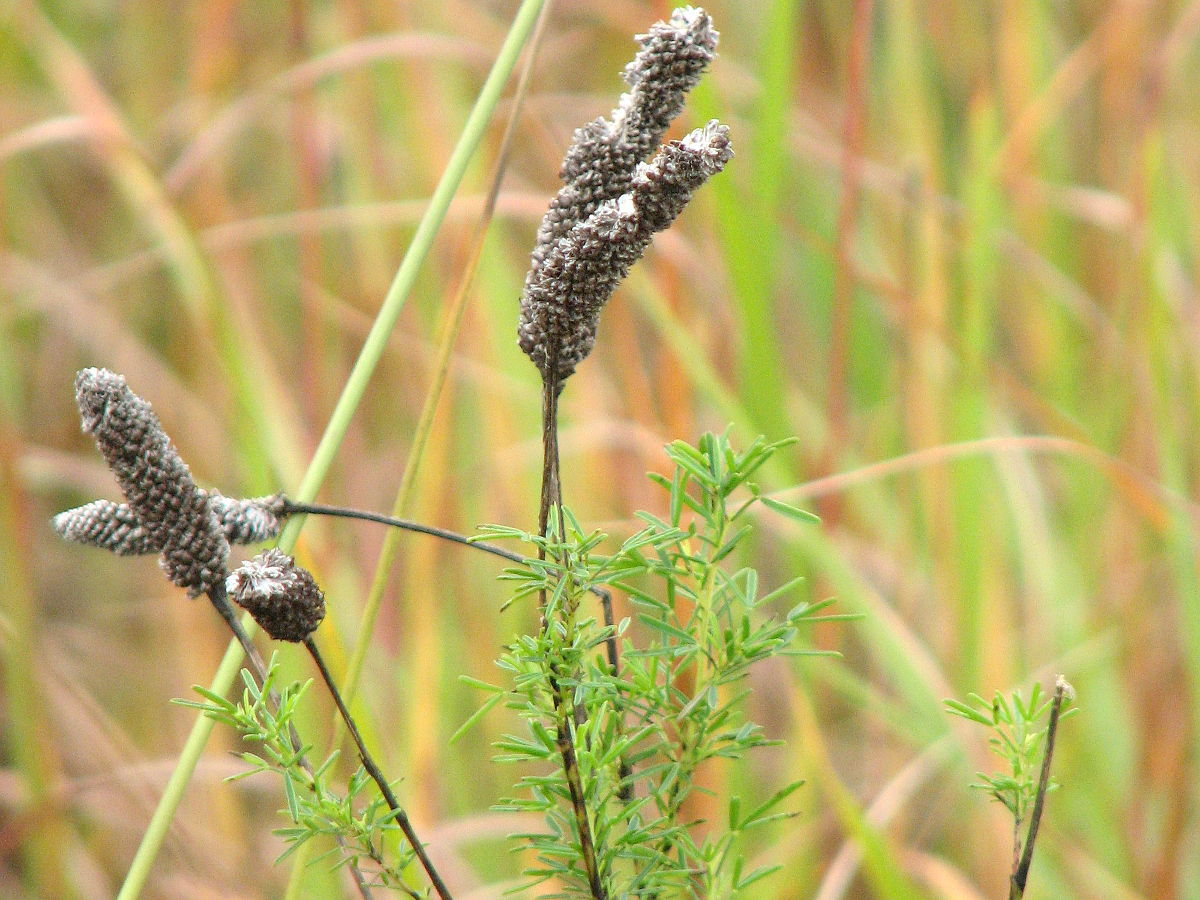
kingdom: Plantae
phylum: Tracheophyta
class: Magnoliopsida
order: Fabales
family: Fabaceae
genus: Dalea
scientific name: Dalea purpurea
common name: Purple prairie-clover
